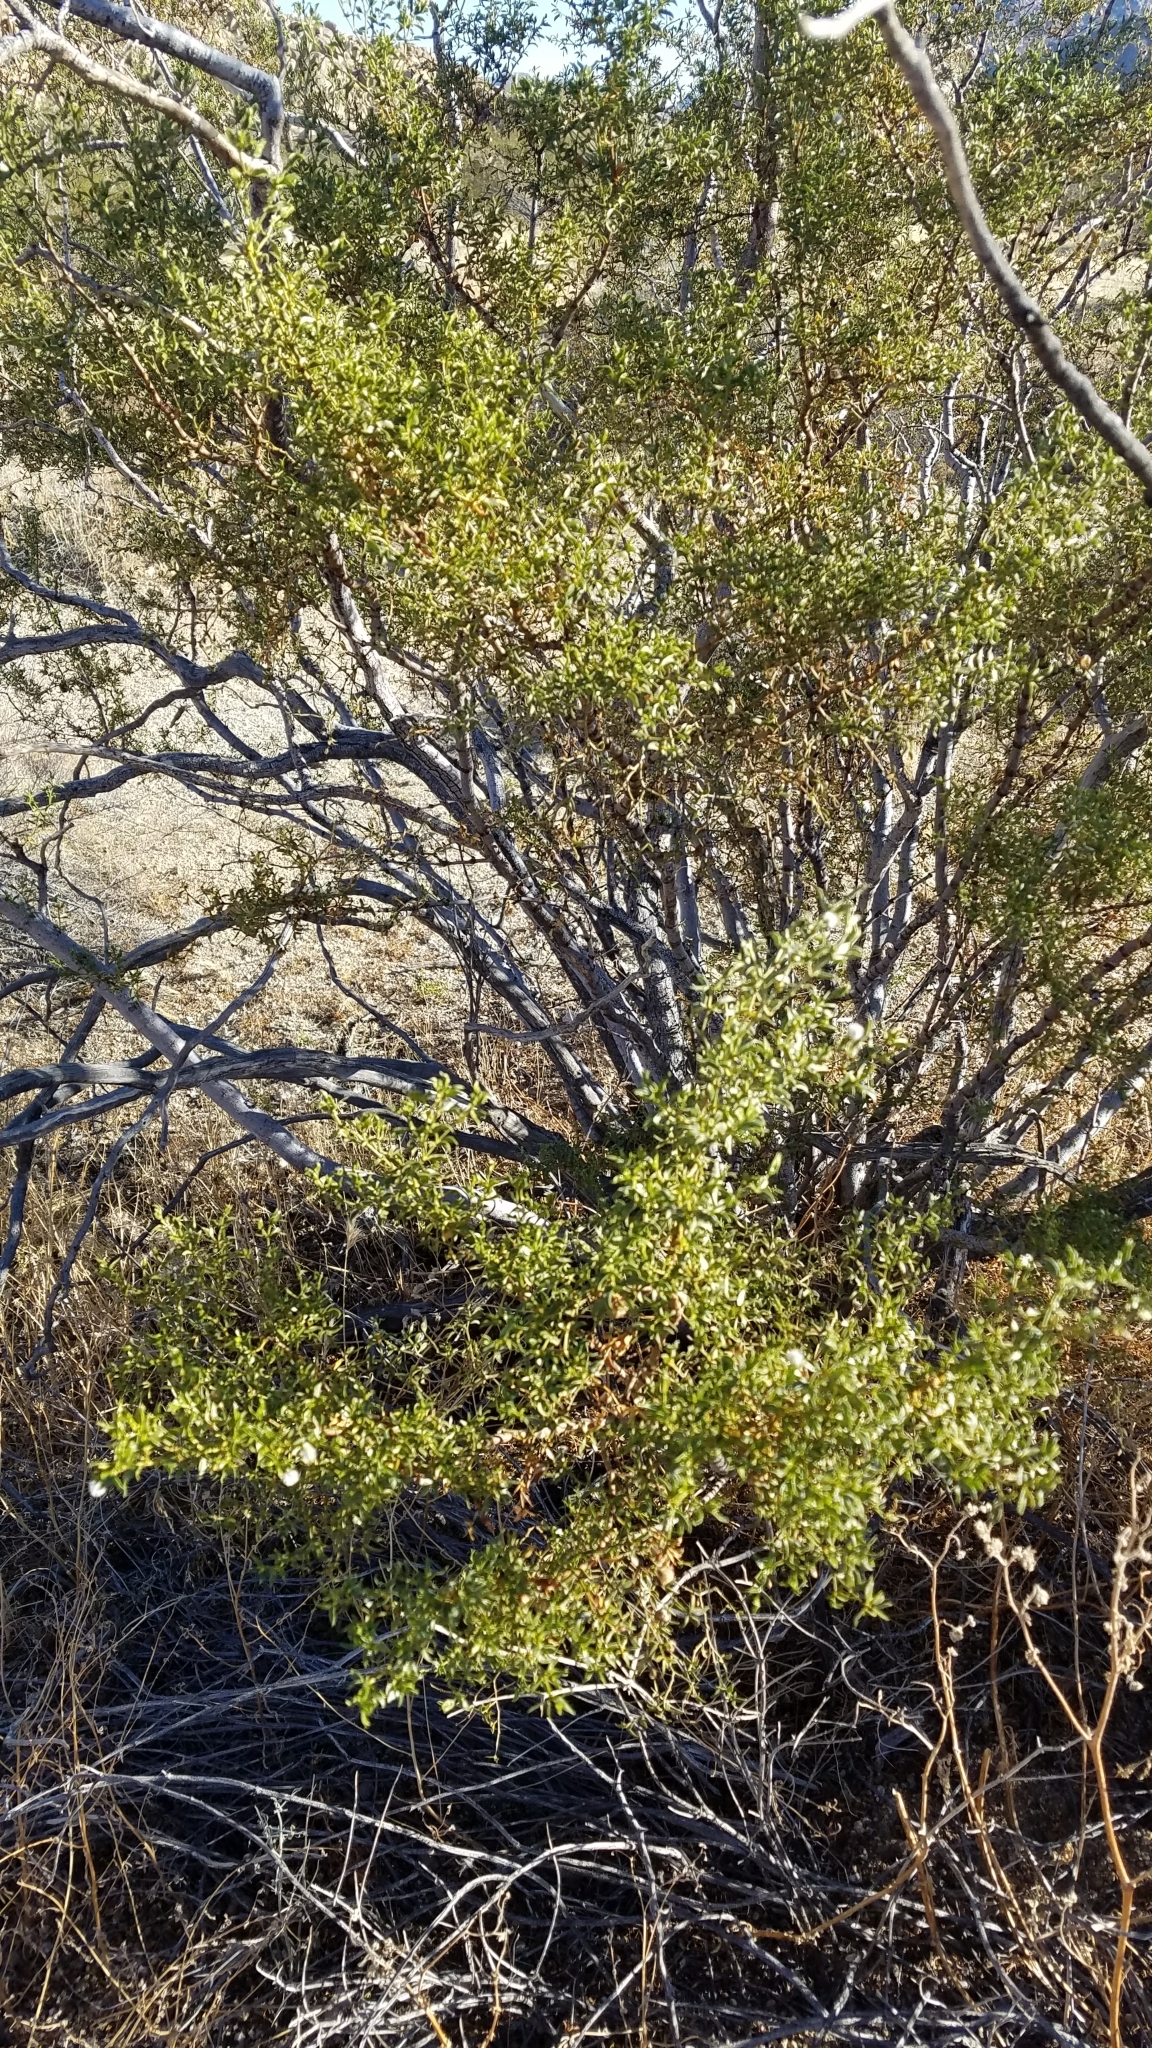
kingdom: Plantae
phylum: Tracheophyta
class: Magnoliopsida
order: Zygophyllales
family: Zygophyllaceae
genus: Larrea
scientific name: Larrea tridentata
